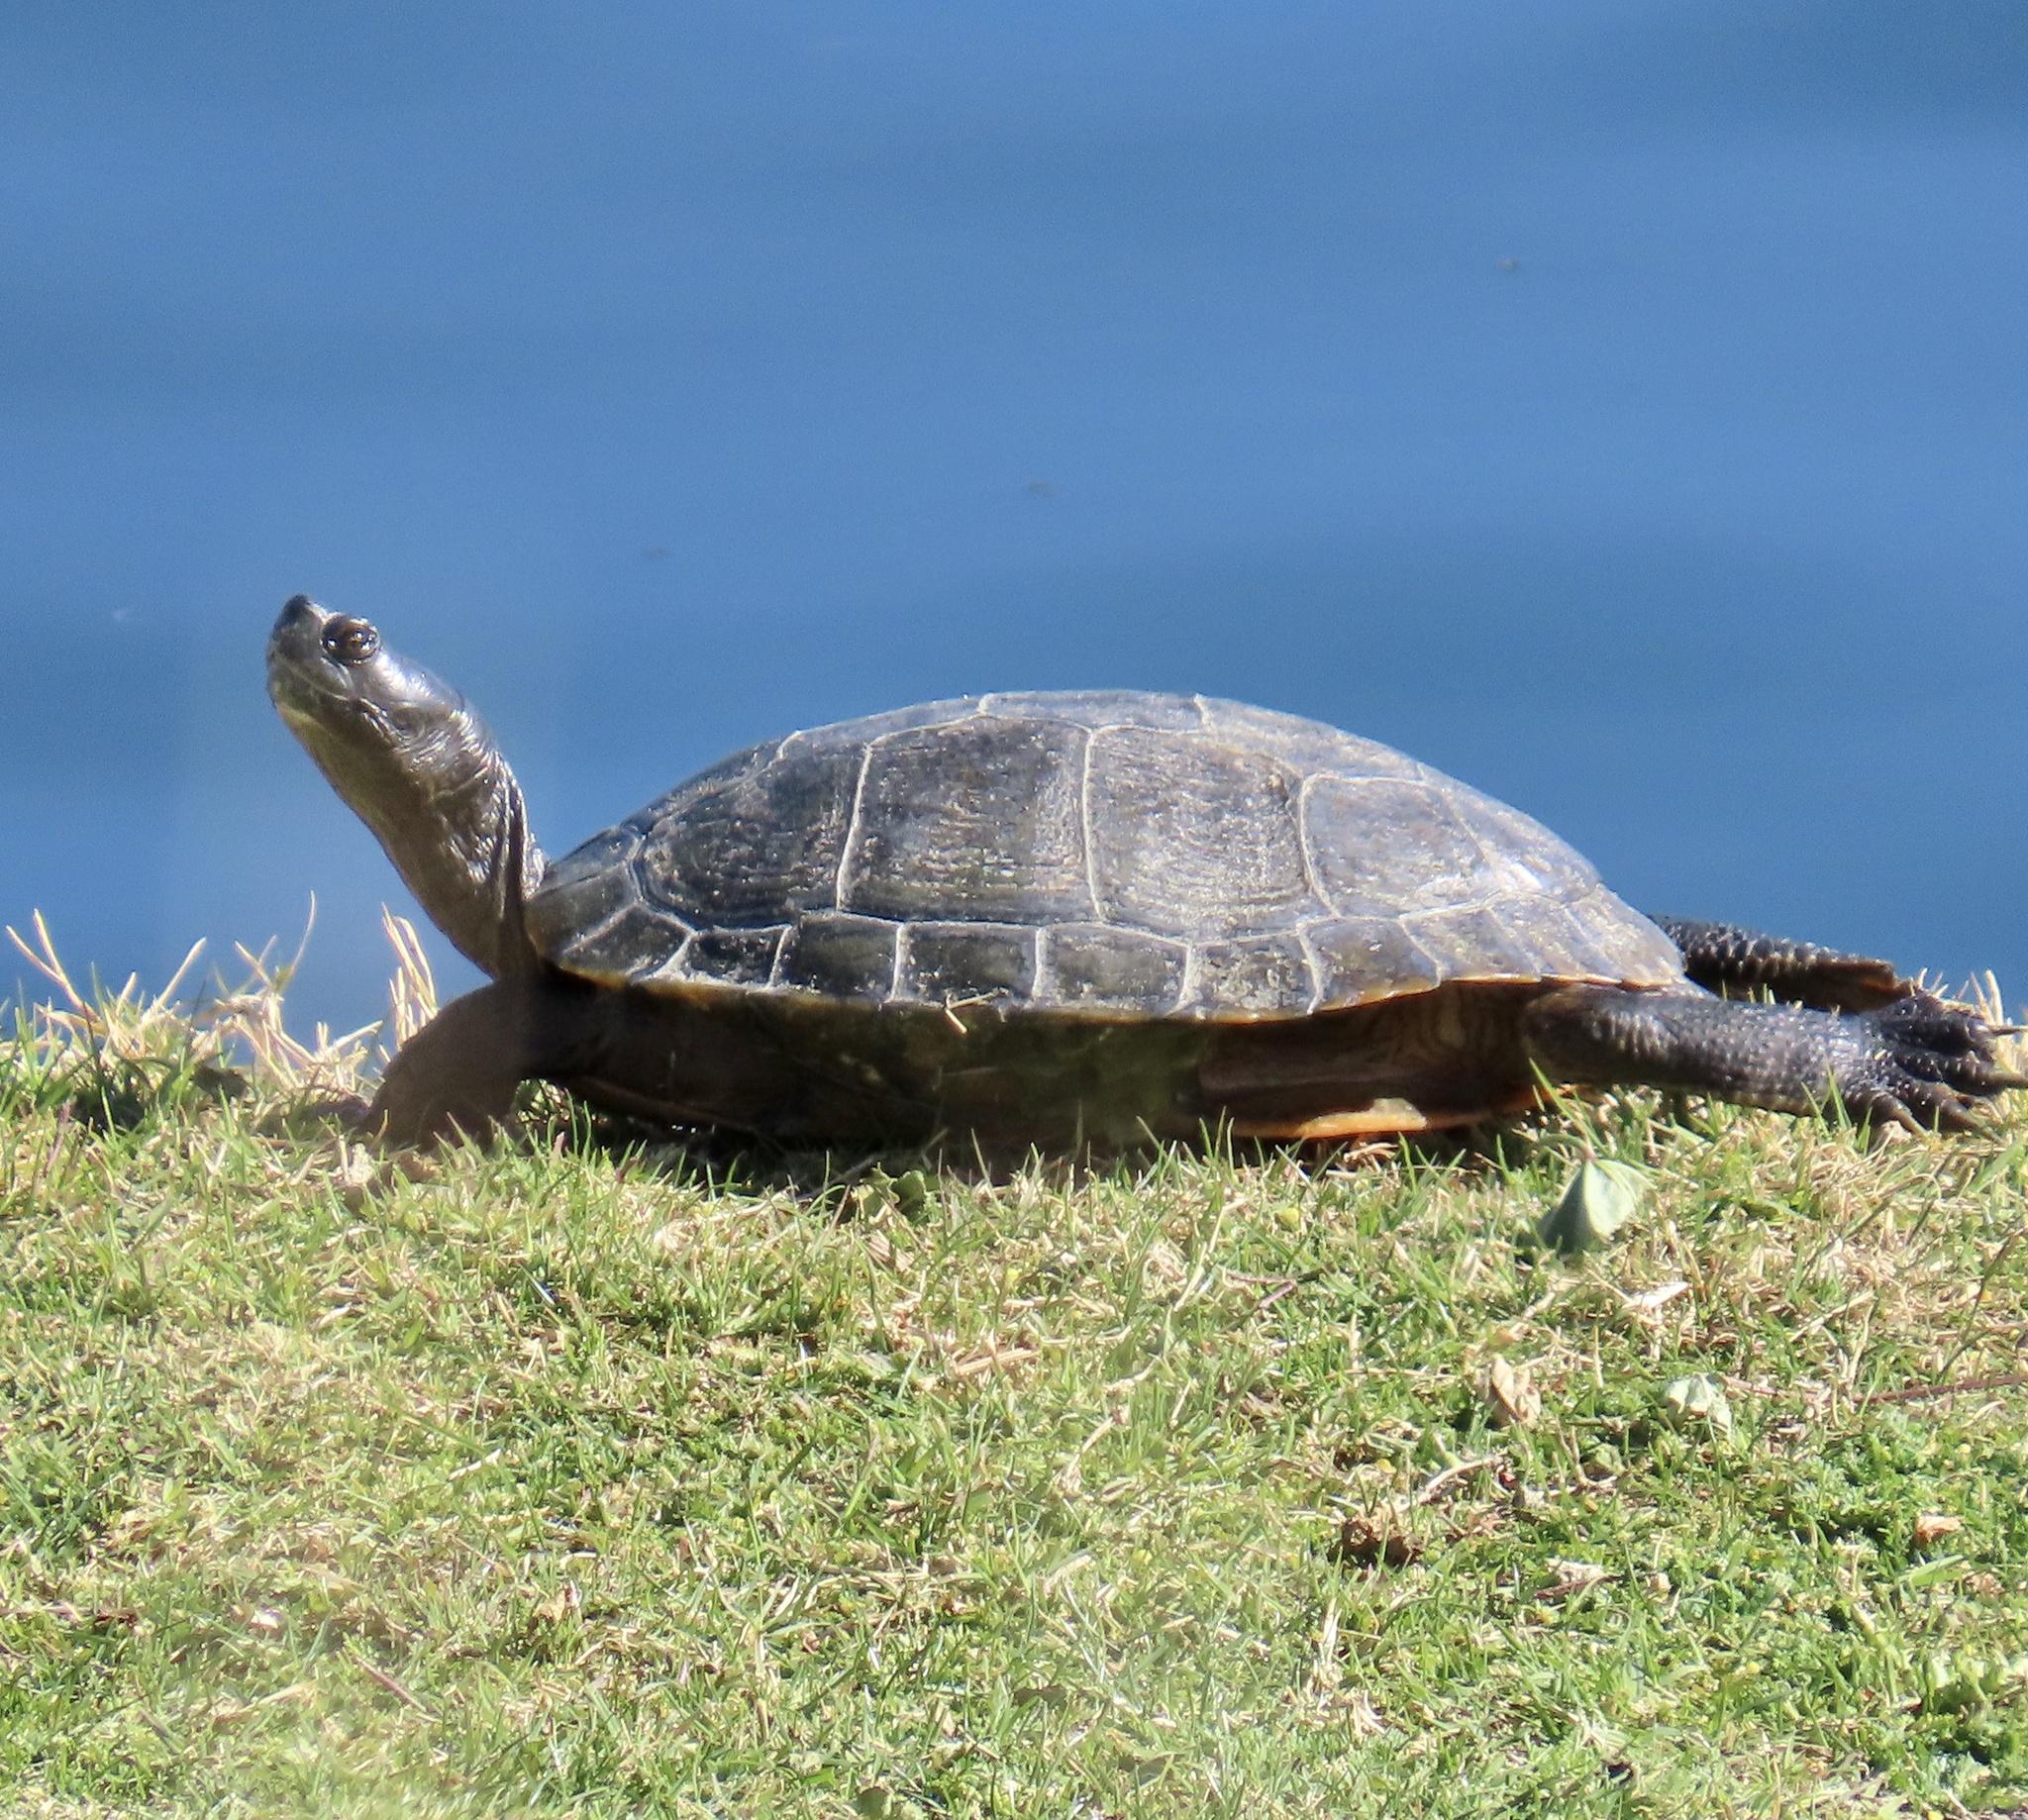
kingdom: Animalia
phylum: Chordata
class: Testudines
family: Emydidae
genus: Trachemys
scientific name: Trachemys scripta
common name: Slider
